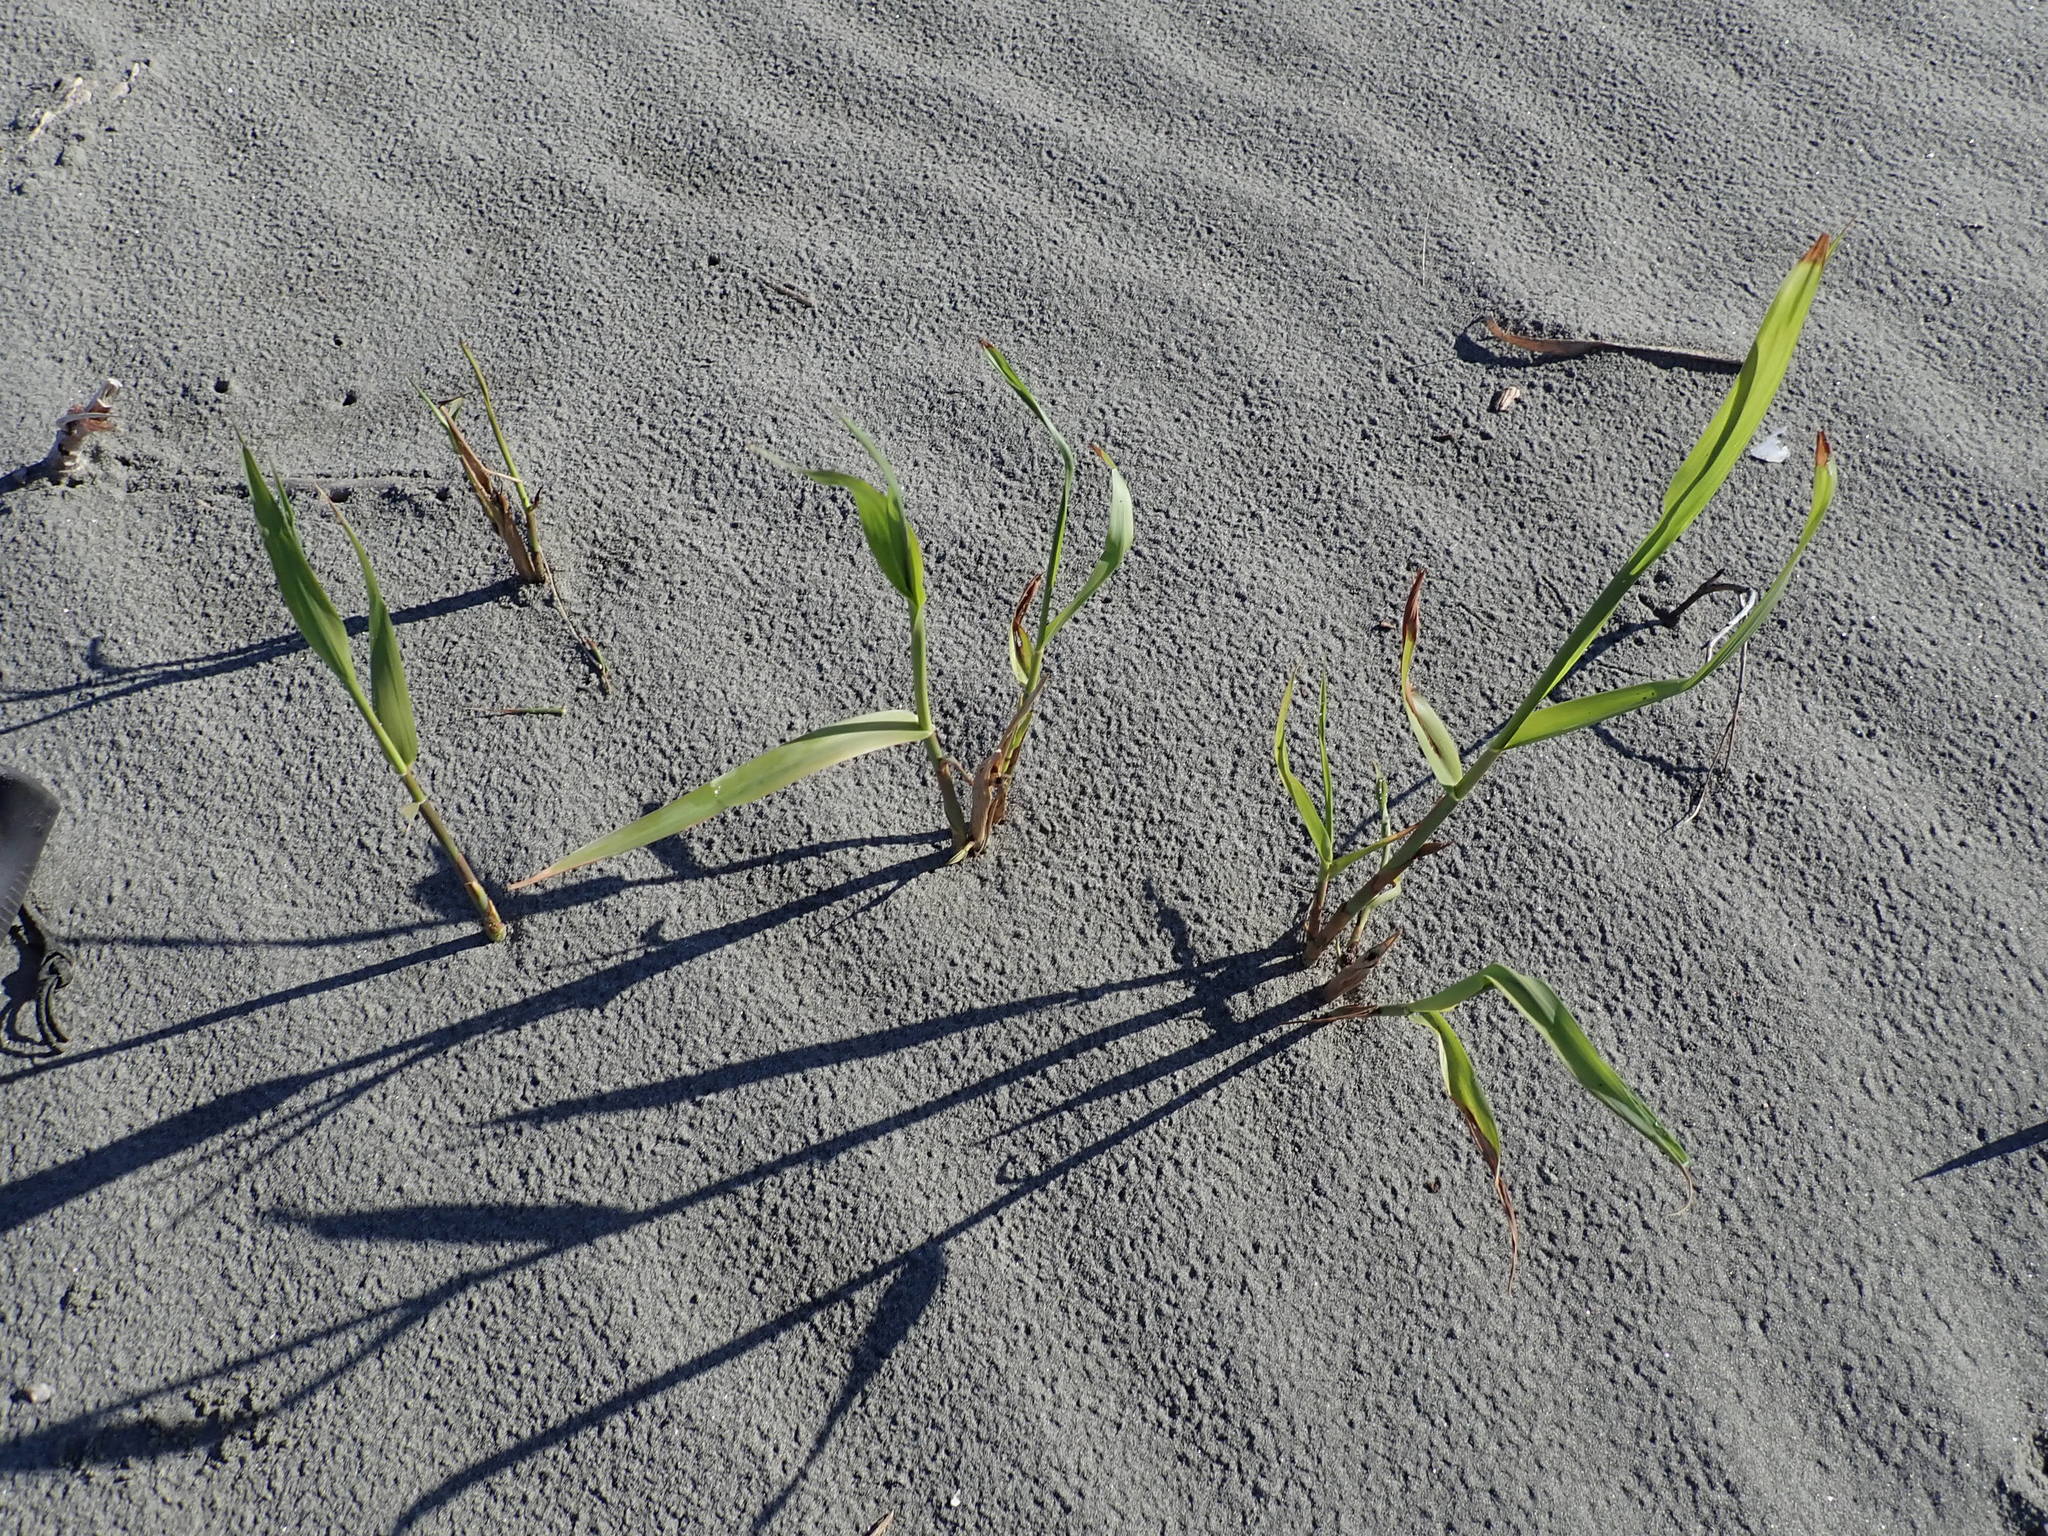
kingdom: Plantae
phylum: Tracheophyta
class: Liliopsida
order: Poales
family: Poaceae
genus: Phragmites
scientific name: Phragmites karka
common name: Tropical reed
